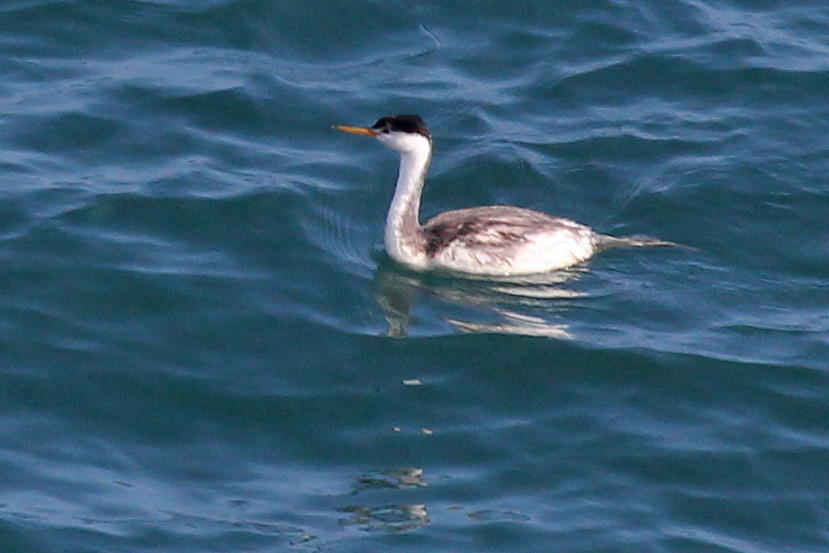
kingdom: Animalia
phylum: Chordata
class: Aves
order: Podicipediformes
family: Podicipedidae
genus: Aechmophorus
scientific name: Aechmophorus clarkii
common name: Clark's grebe
